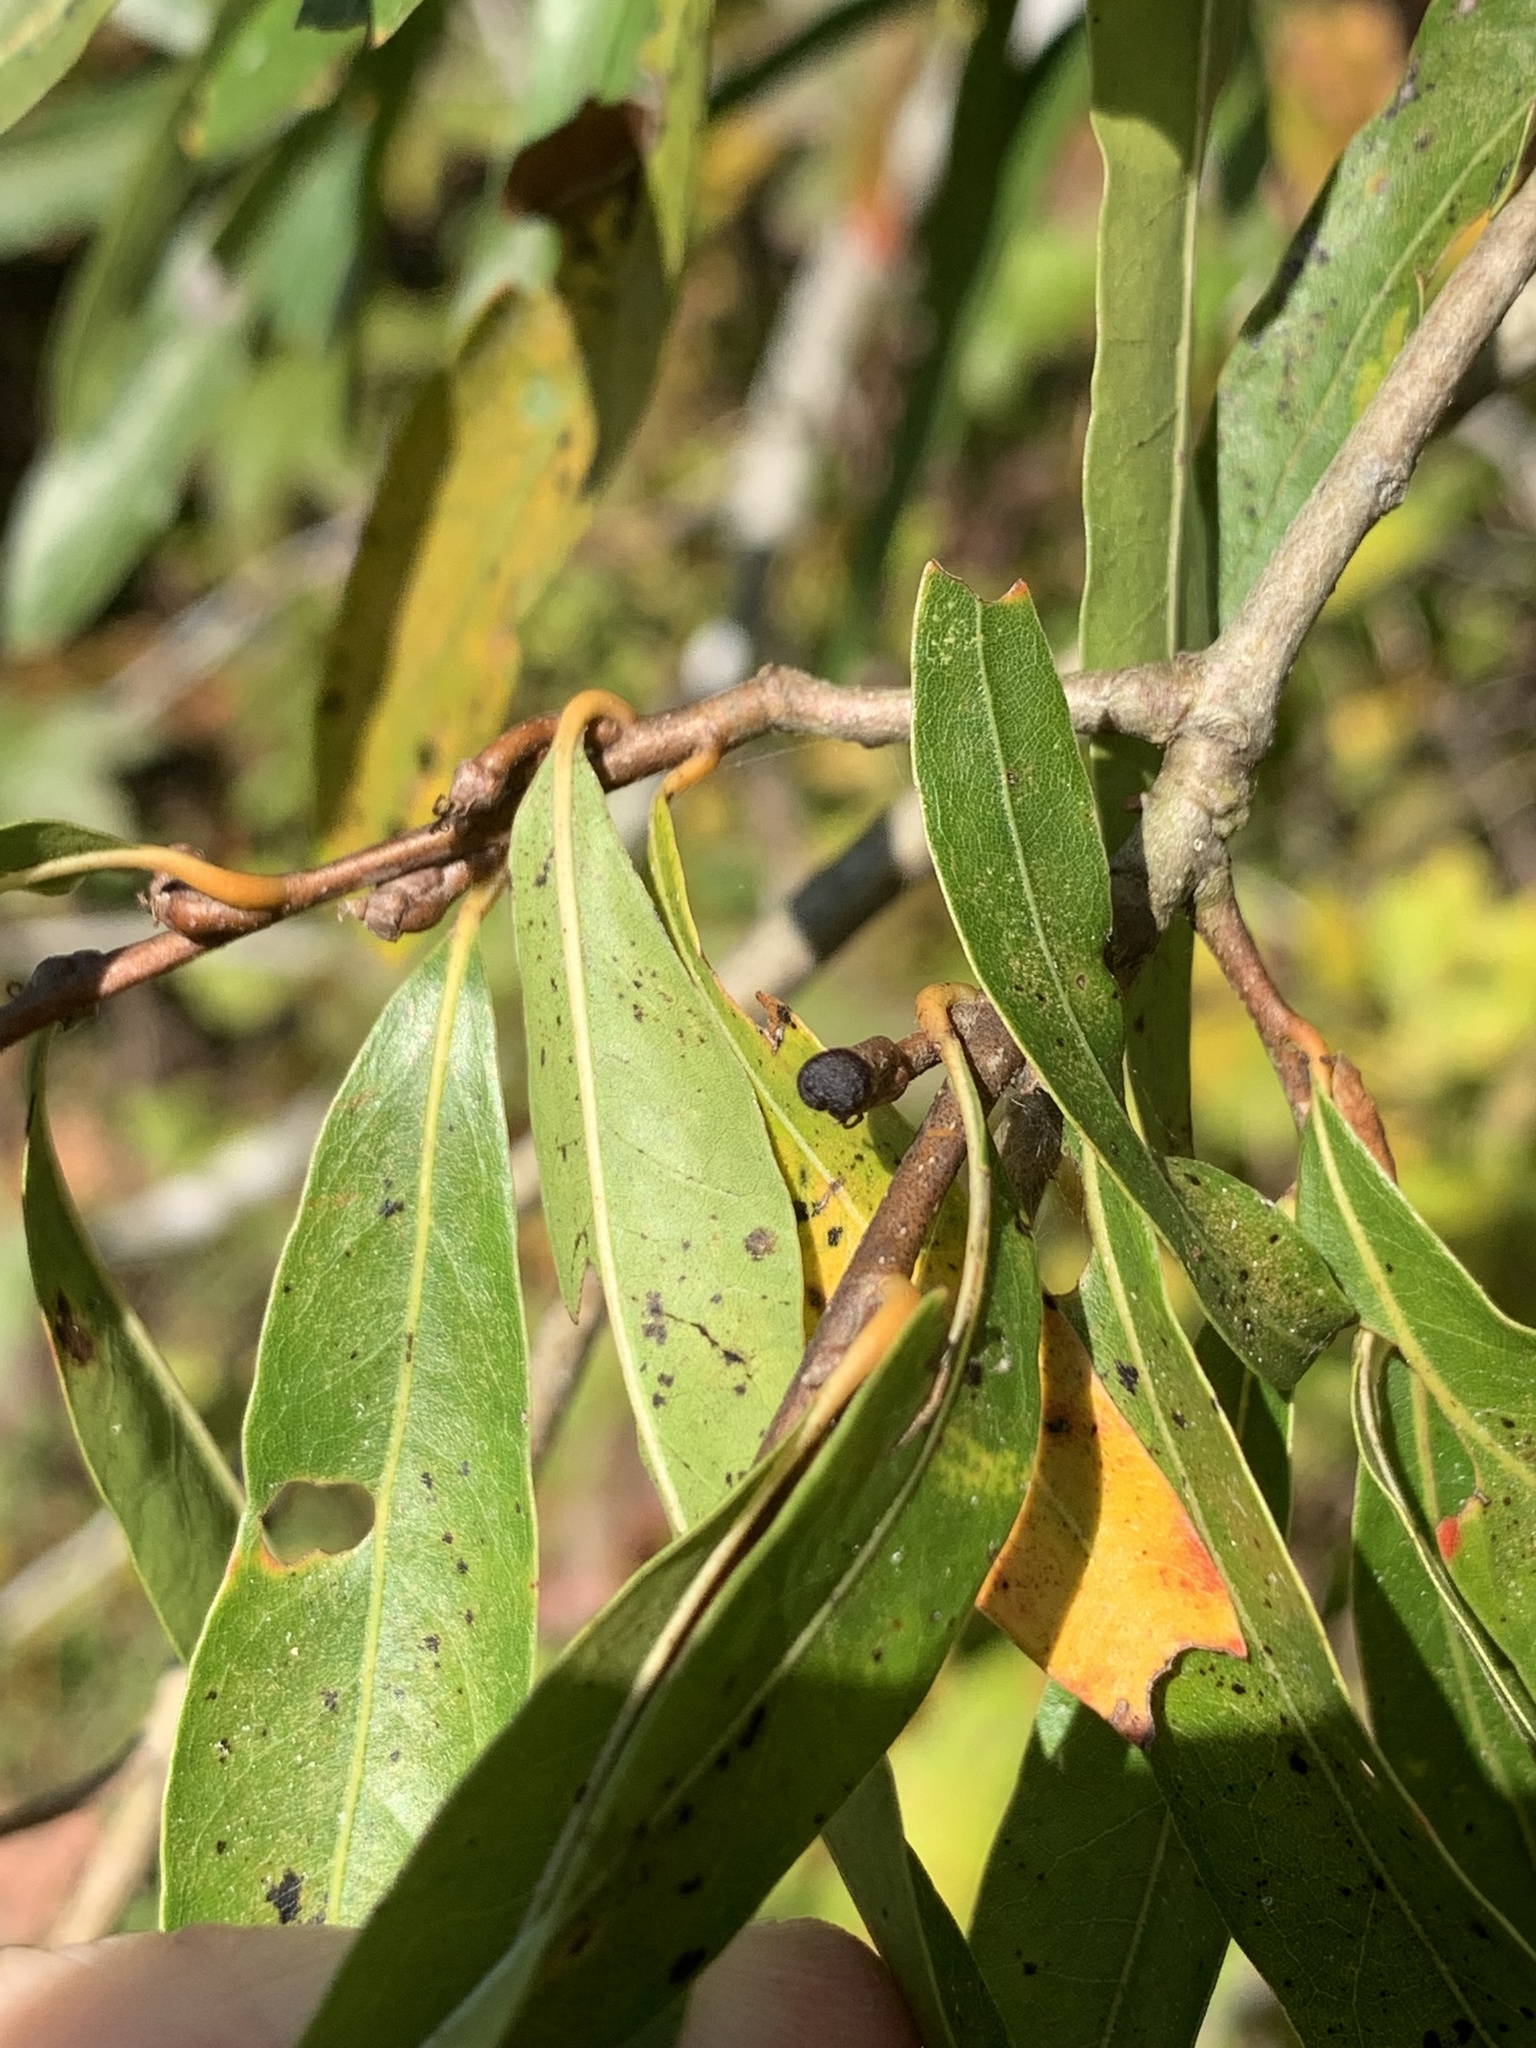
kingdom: Animalia
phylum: Arthropoda
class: Insecta
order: Hymenoptera
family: Cynipidae
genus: Callirhytis
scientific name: Callirhytis
